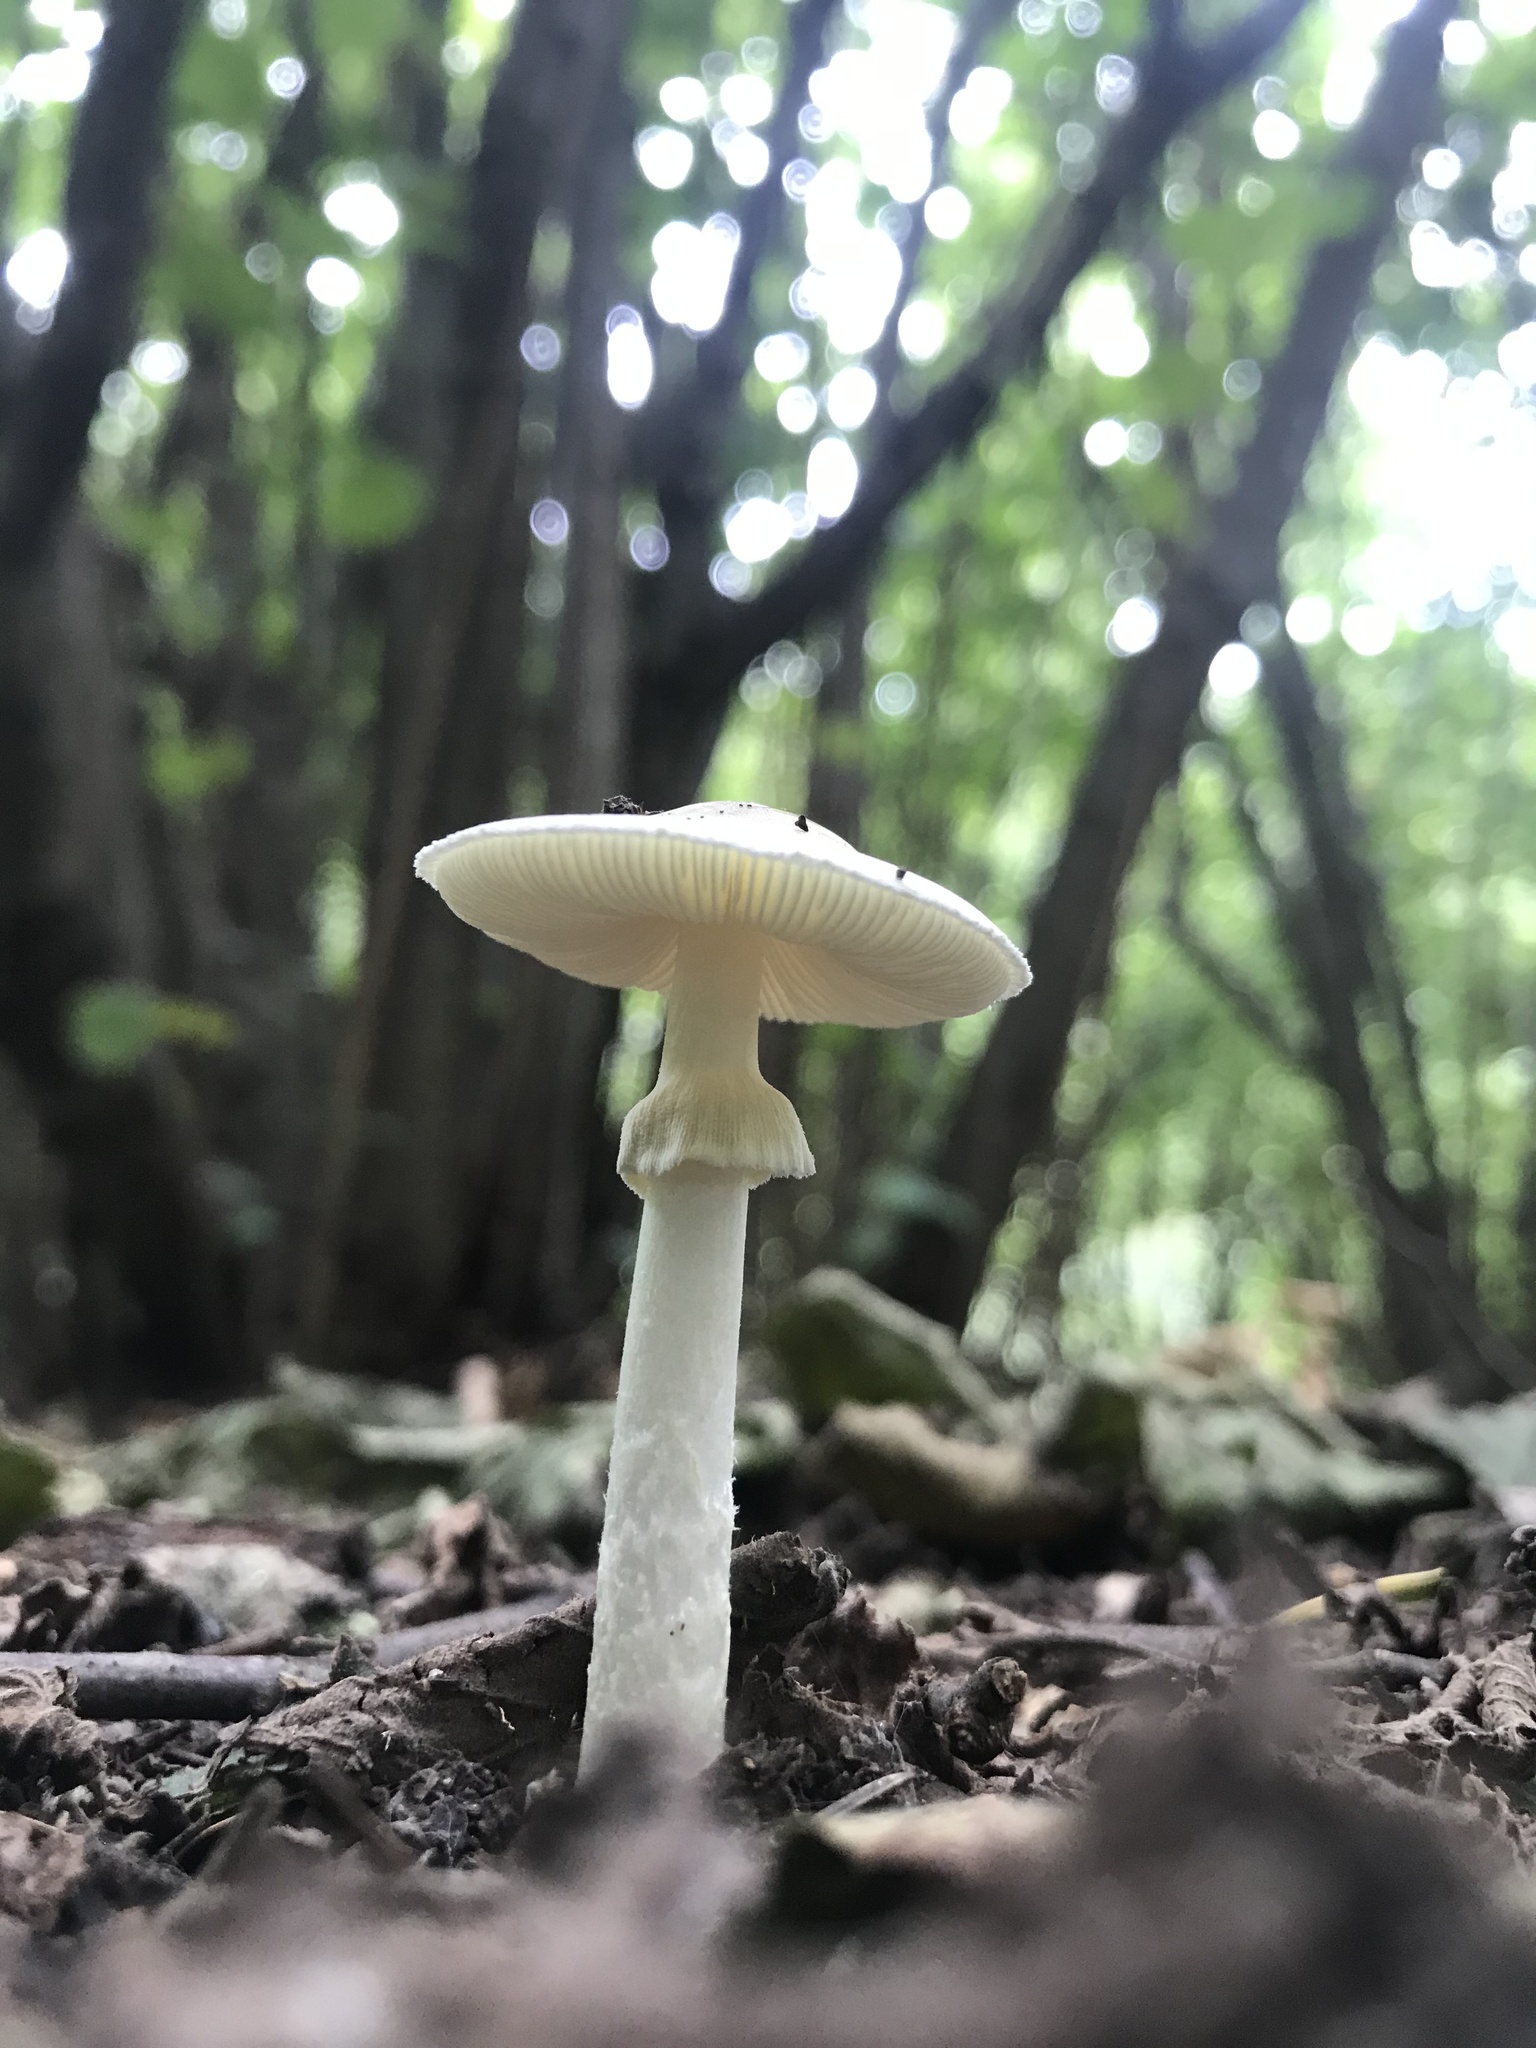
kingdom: Fungi
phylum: Basidiomycota
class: Agaricomycetes
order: Agaricales
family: Amanitaceae
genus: Amanita
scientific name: Amanita bisporigera
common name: Eastern north american destroying angel
